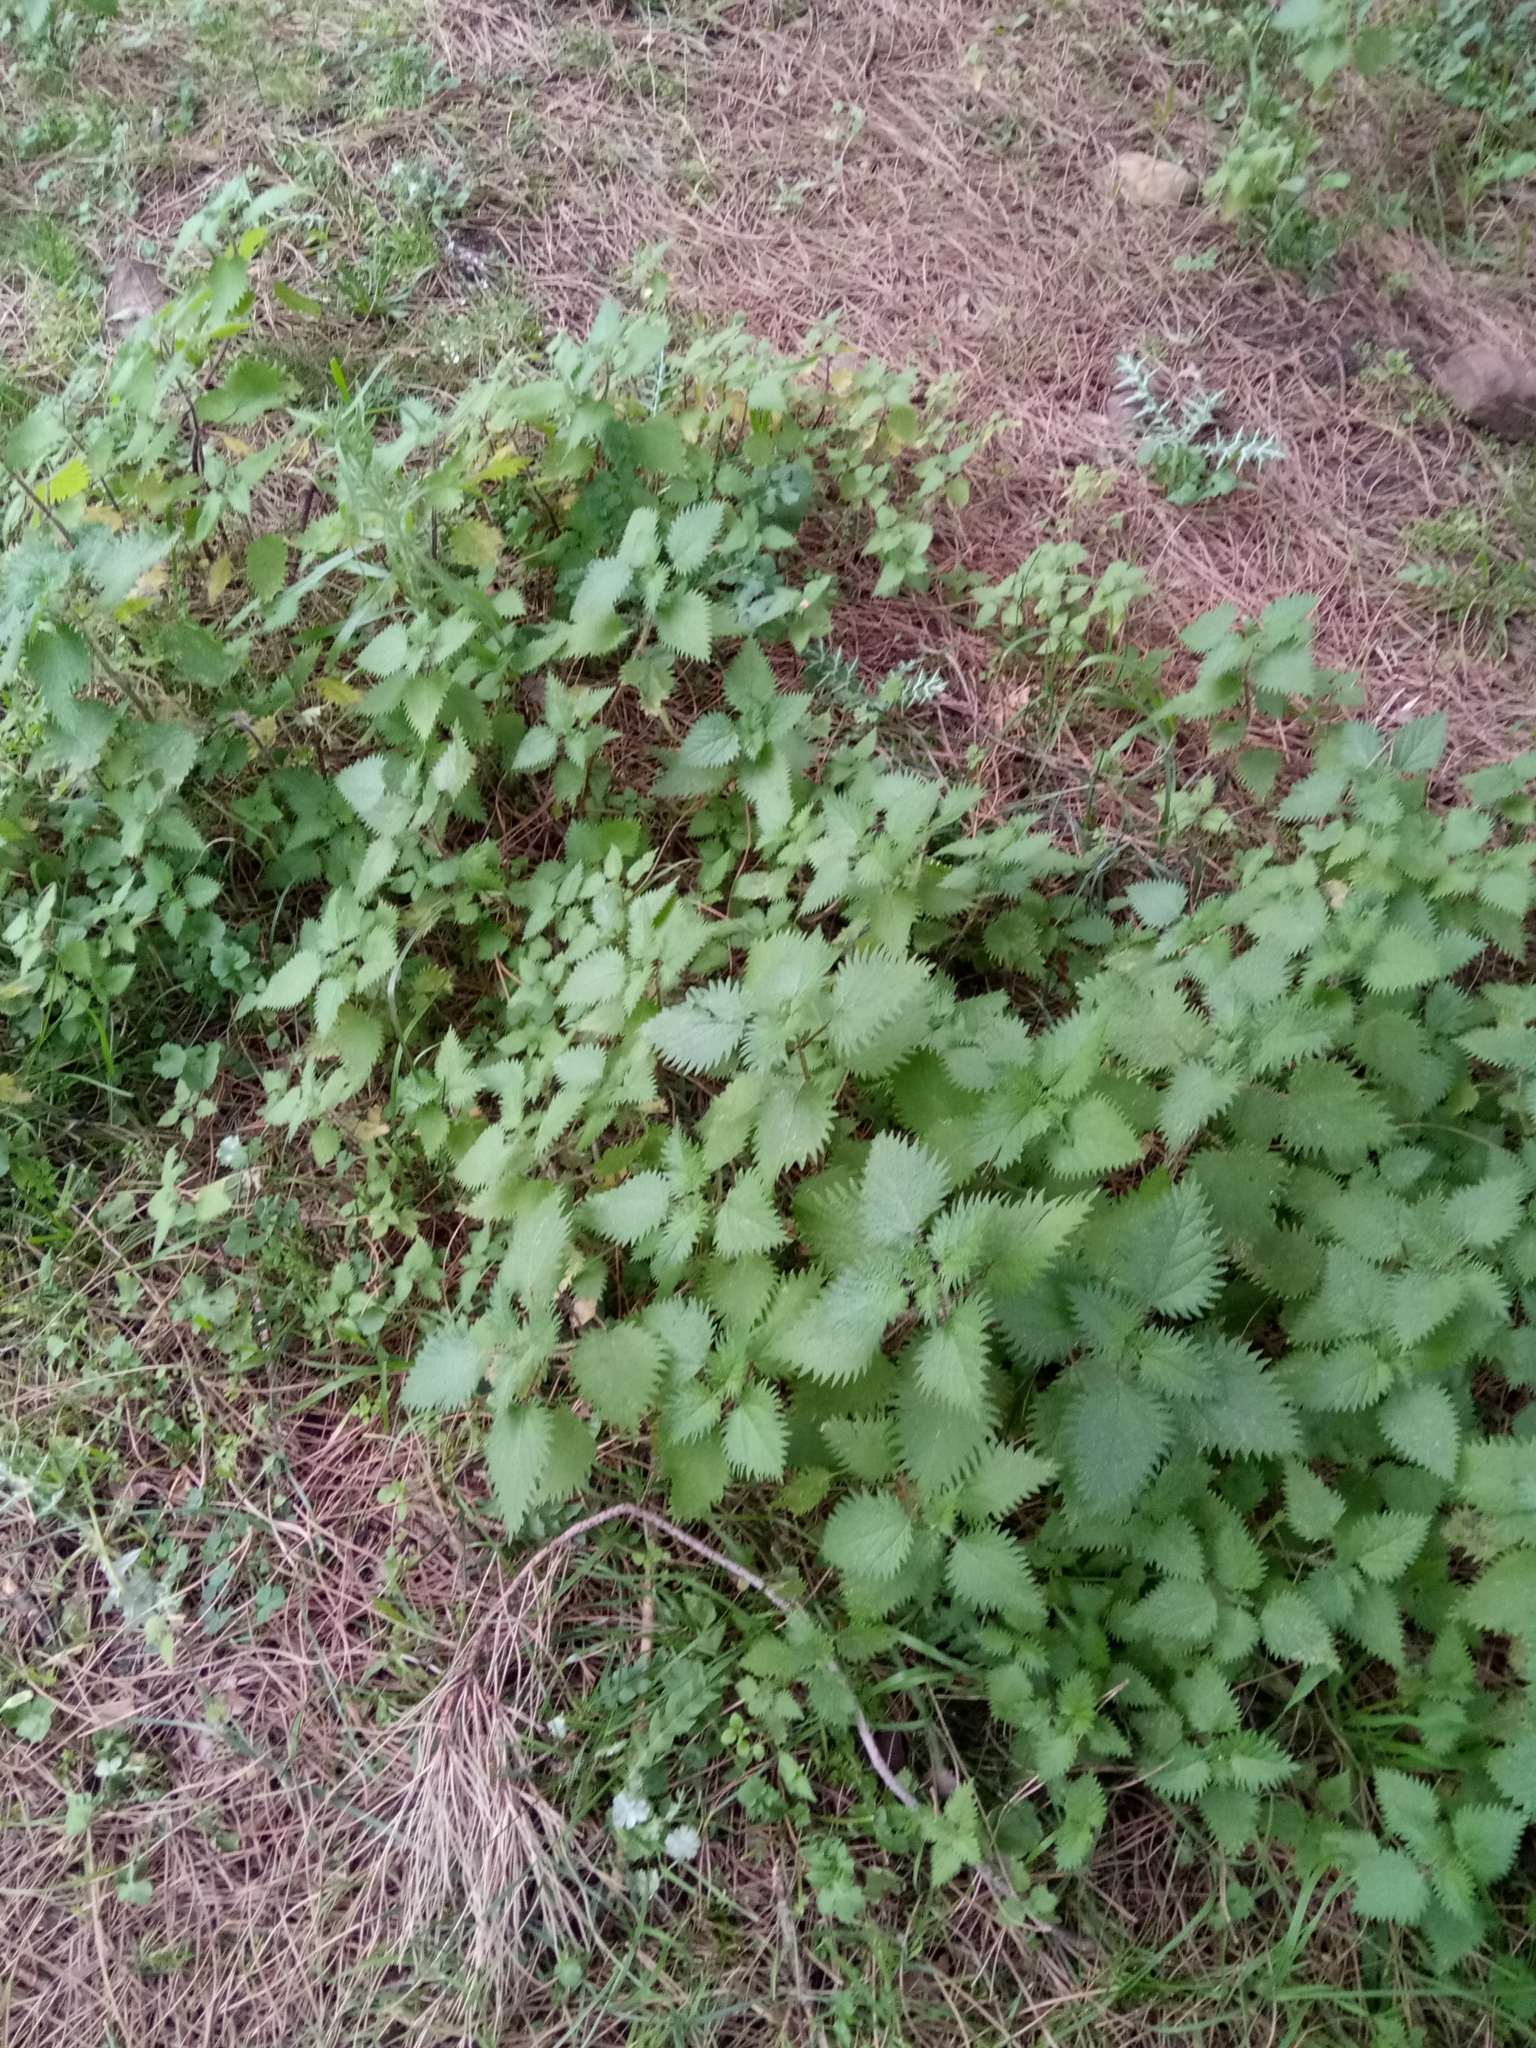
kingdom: Plantae
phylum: Tracheophyta
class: Magnoliopsida
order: Rosales
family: Urticaceae
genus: Urtica
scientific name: Urtica membranacea
